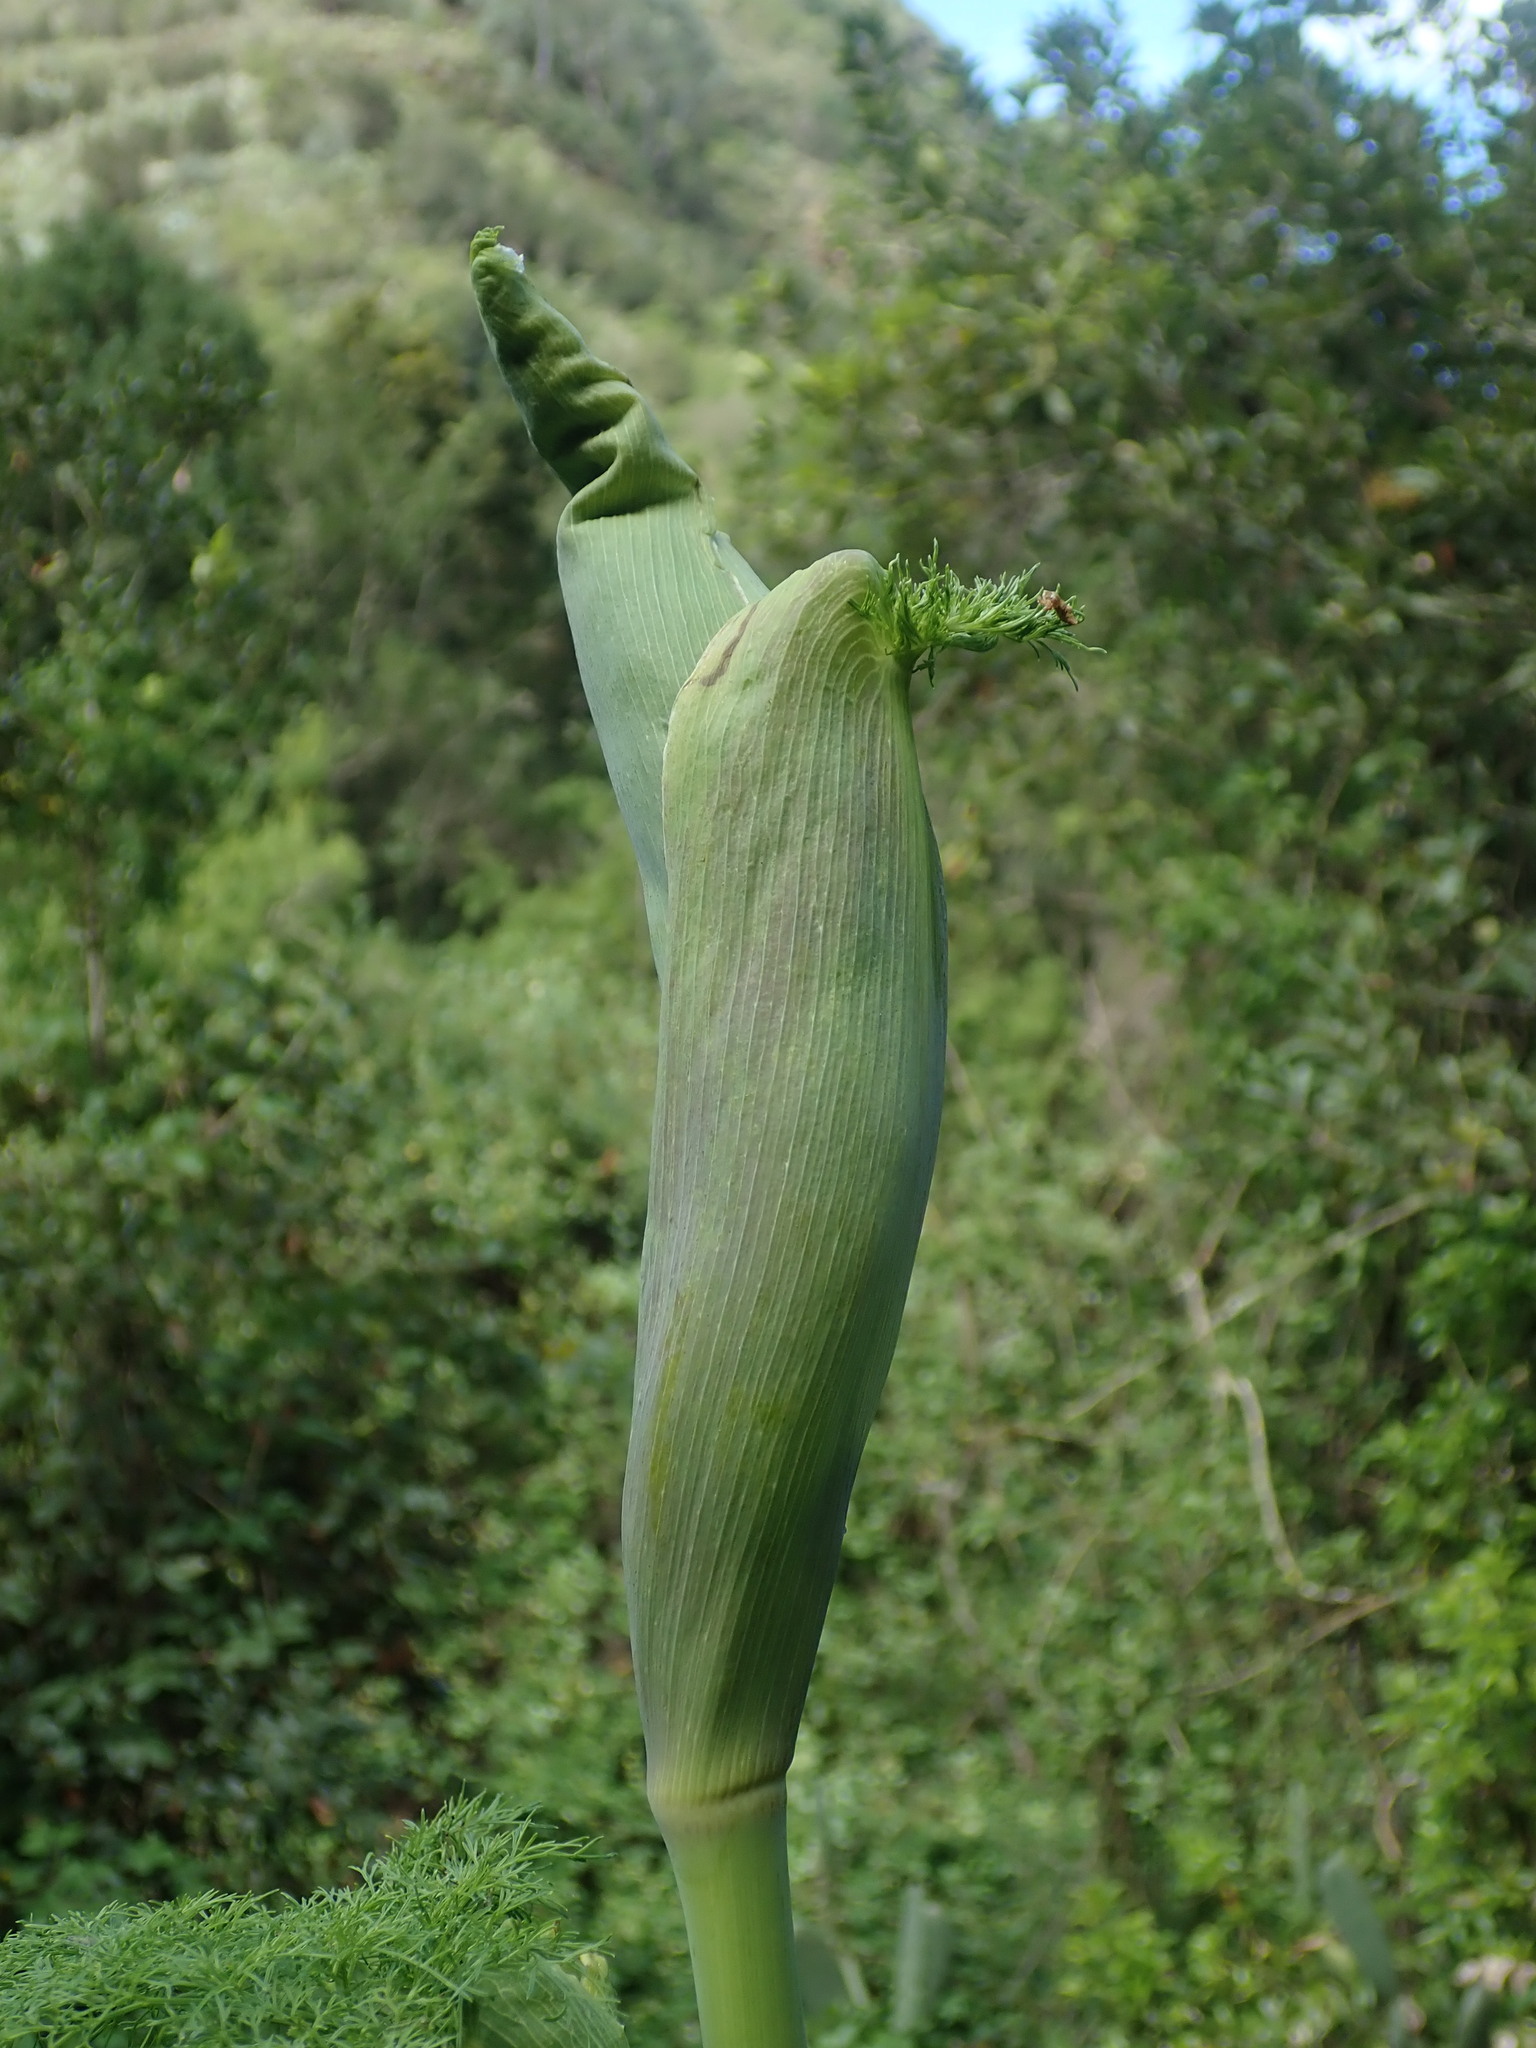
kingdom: Plantae
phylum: Tracheophyta
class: Magnoliopsida
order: Apiales
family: Apiaceae
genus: Ferula
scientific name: Ferula communis
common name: Giant fennel
